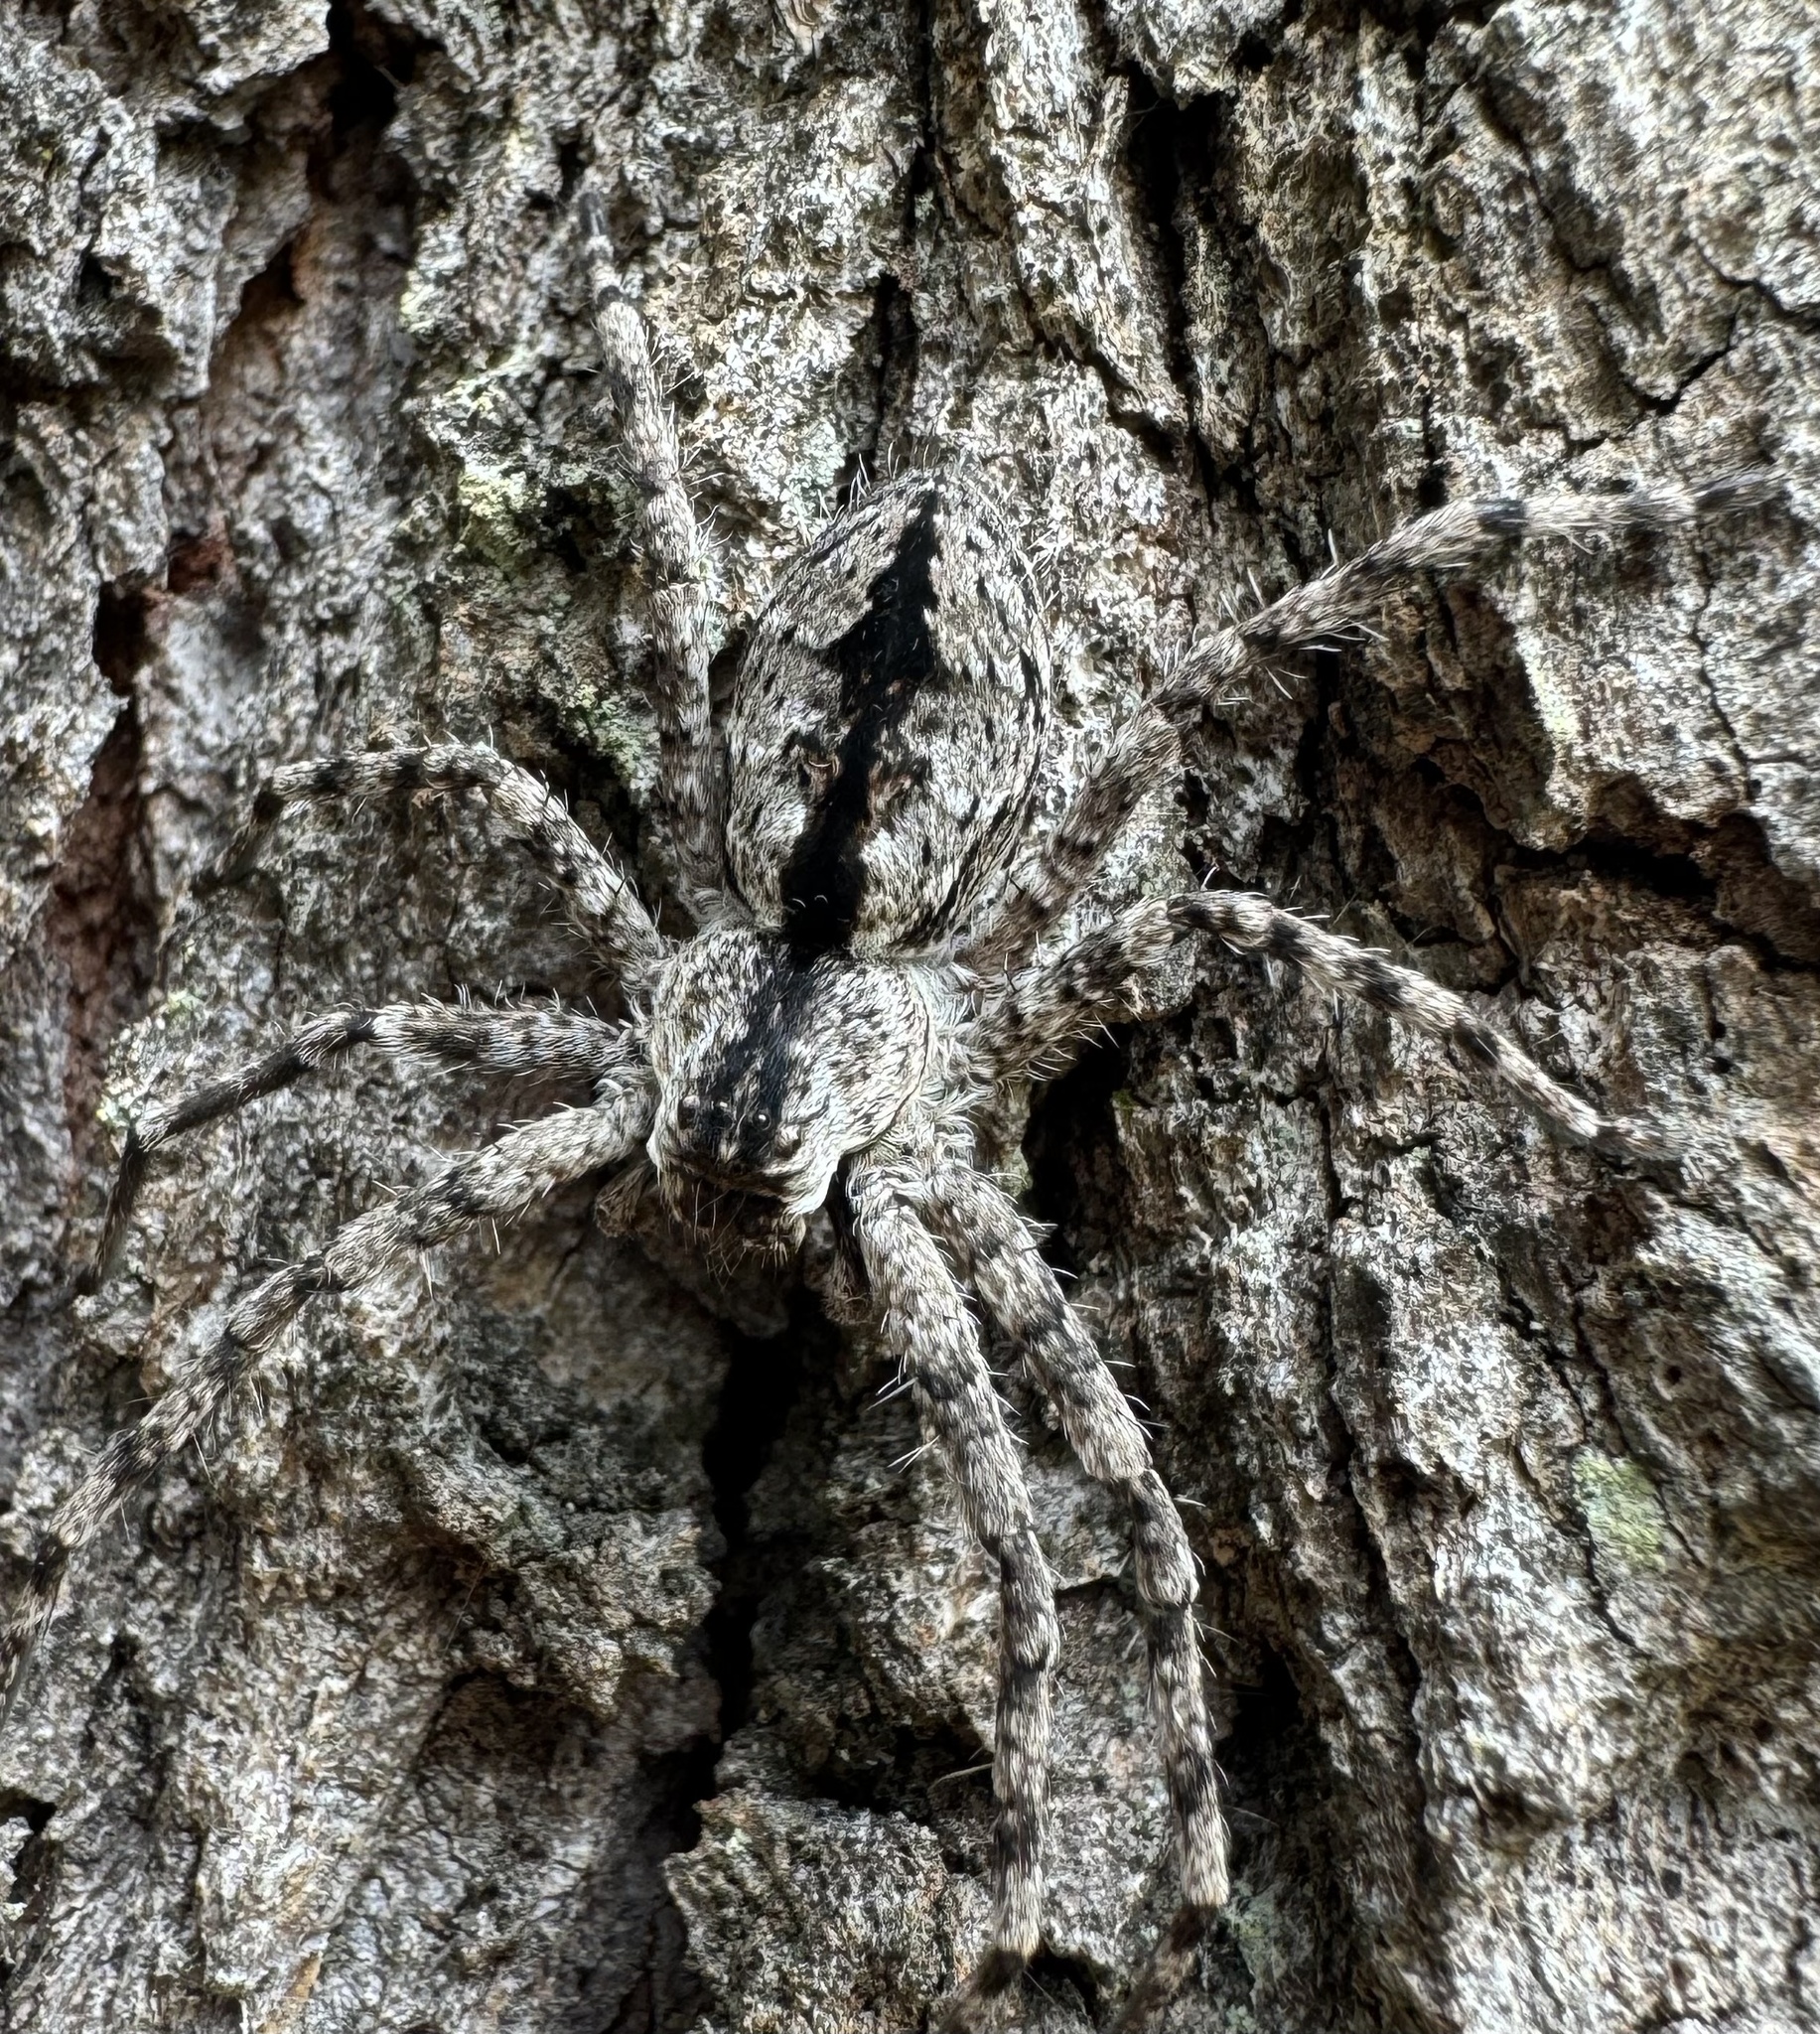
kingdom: Animalia
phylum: Arthropoda
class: Arachnida
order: Araneae
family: Sparassidae
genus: Pediana
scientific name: Pediana regina
